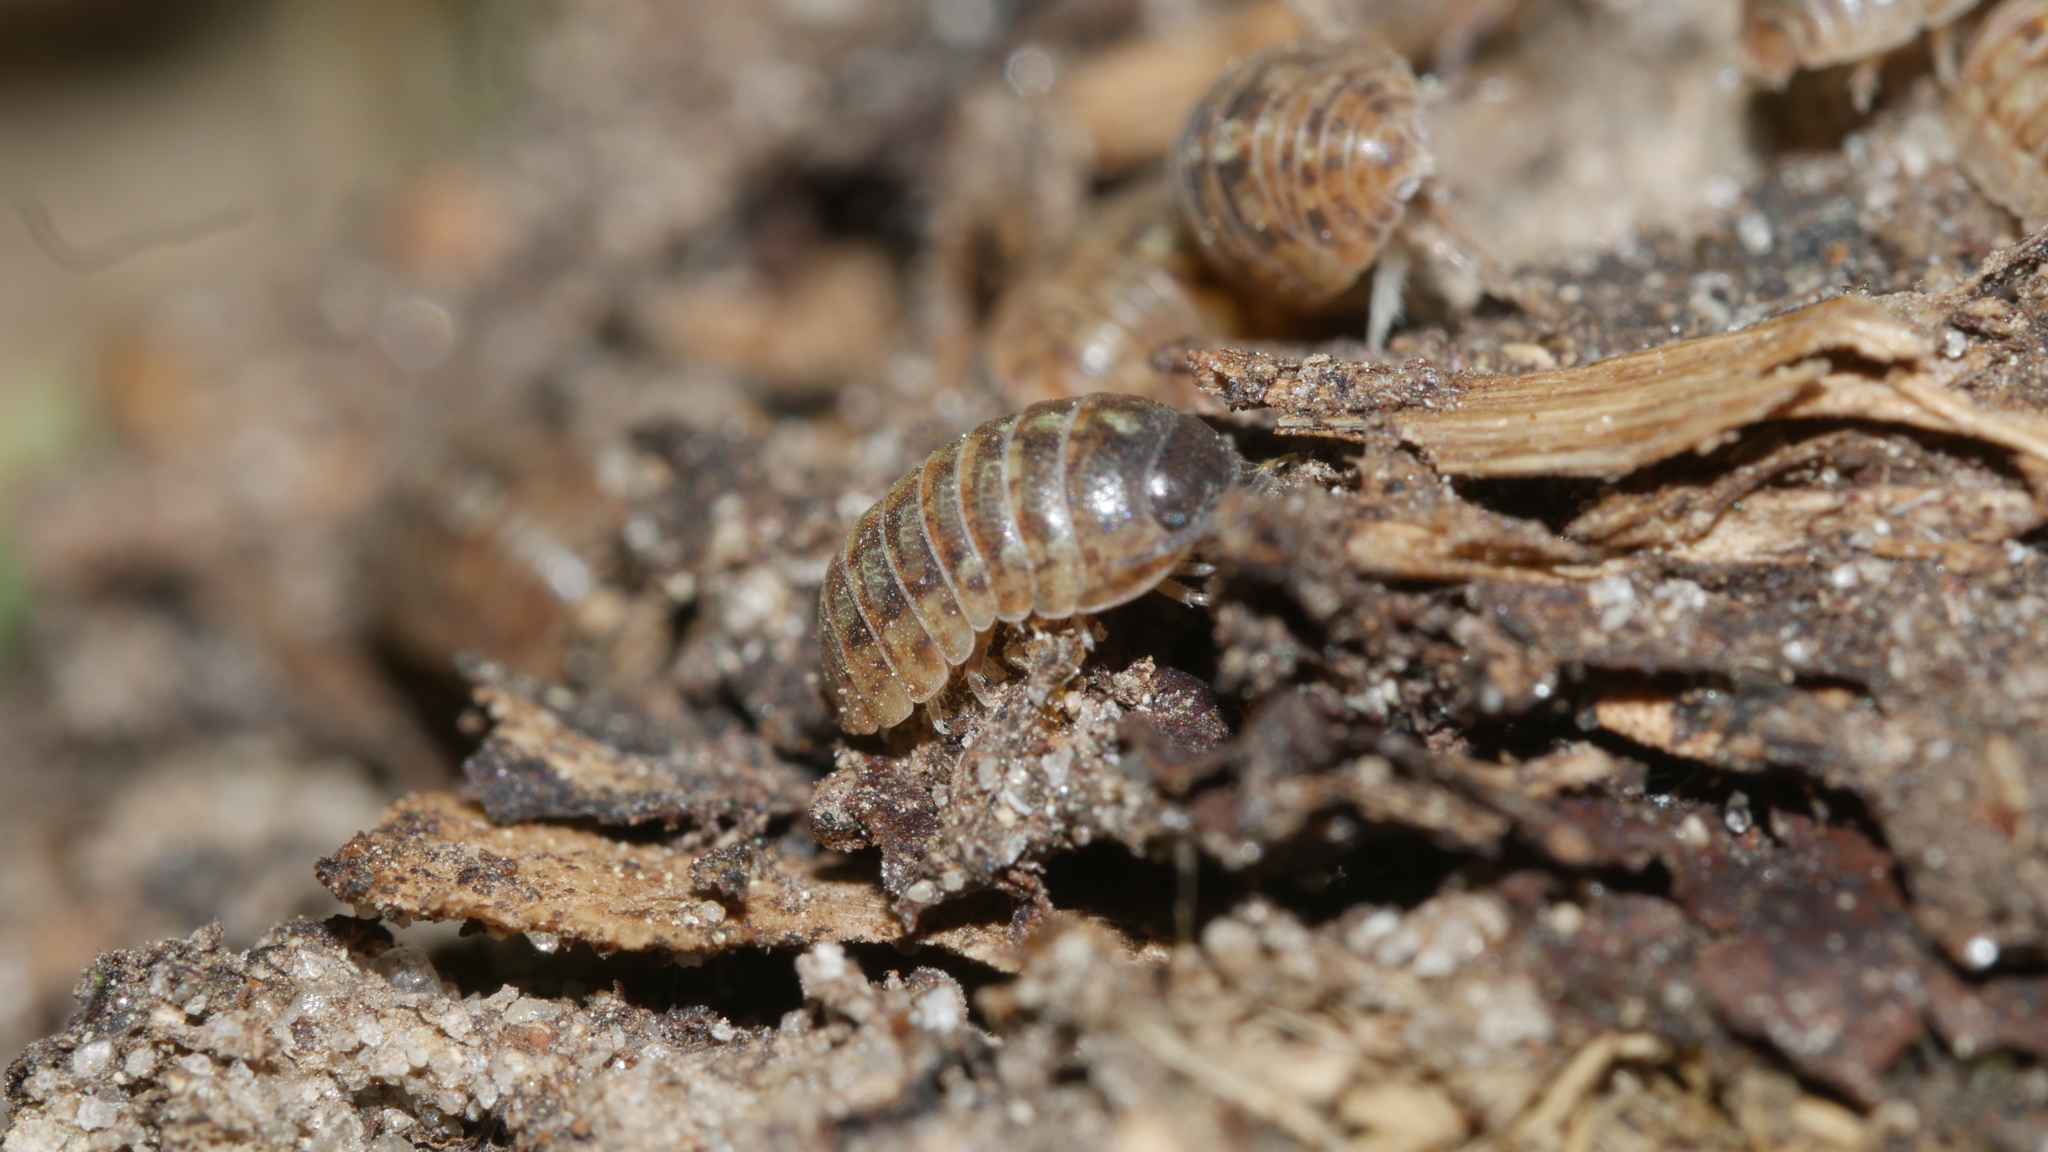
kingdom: Animalia
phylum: Arthropoda
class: Malacostraca
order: Isopoda
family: Armadillidiidae
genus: Armadillidium
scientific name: Armadillidium vulgare
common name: Common pill woodlouse
